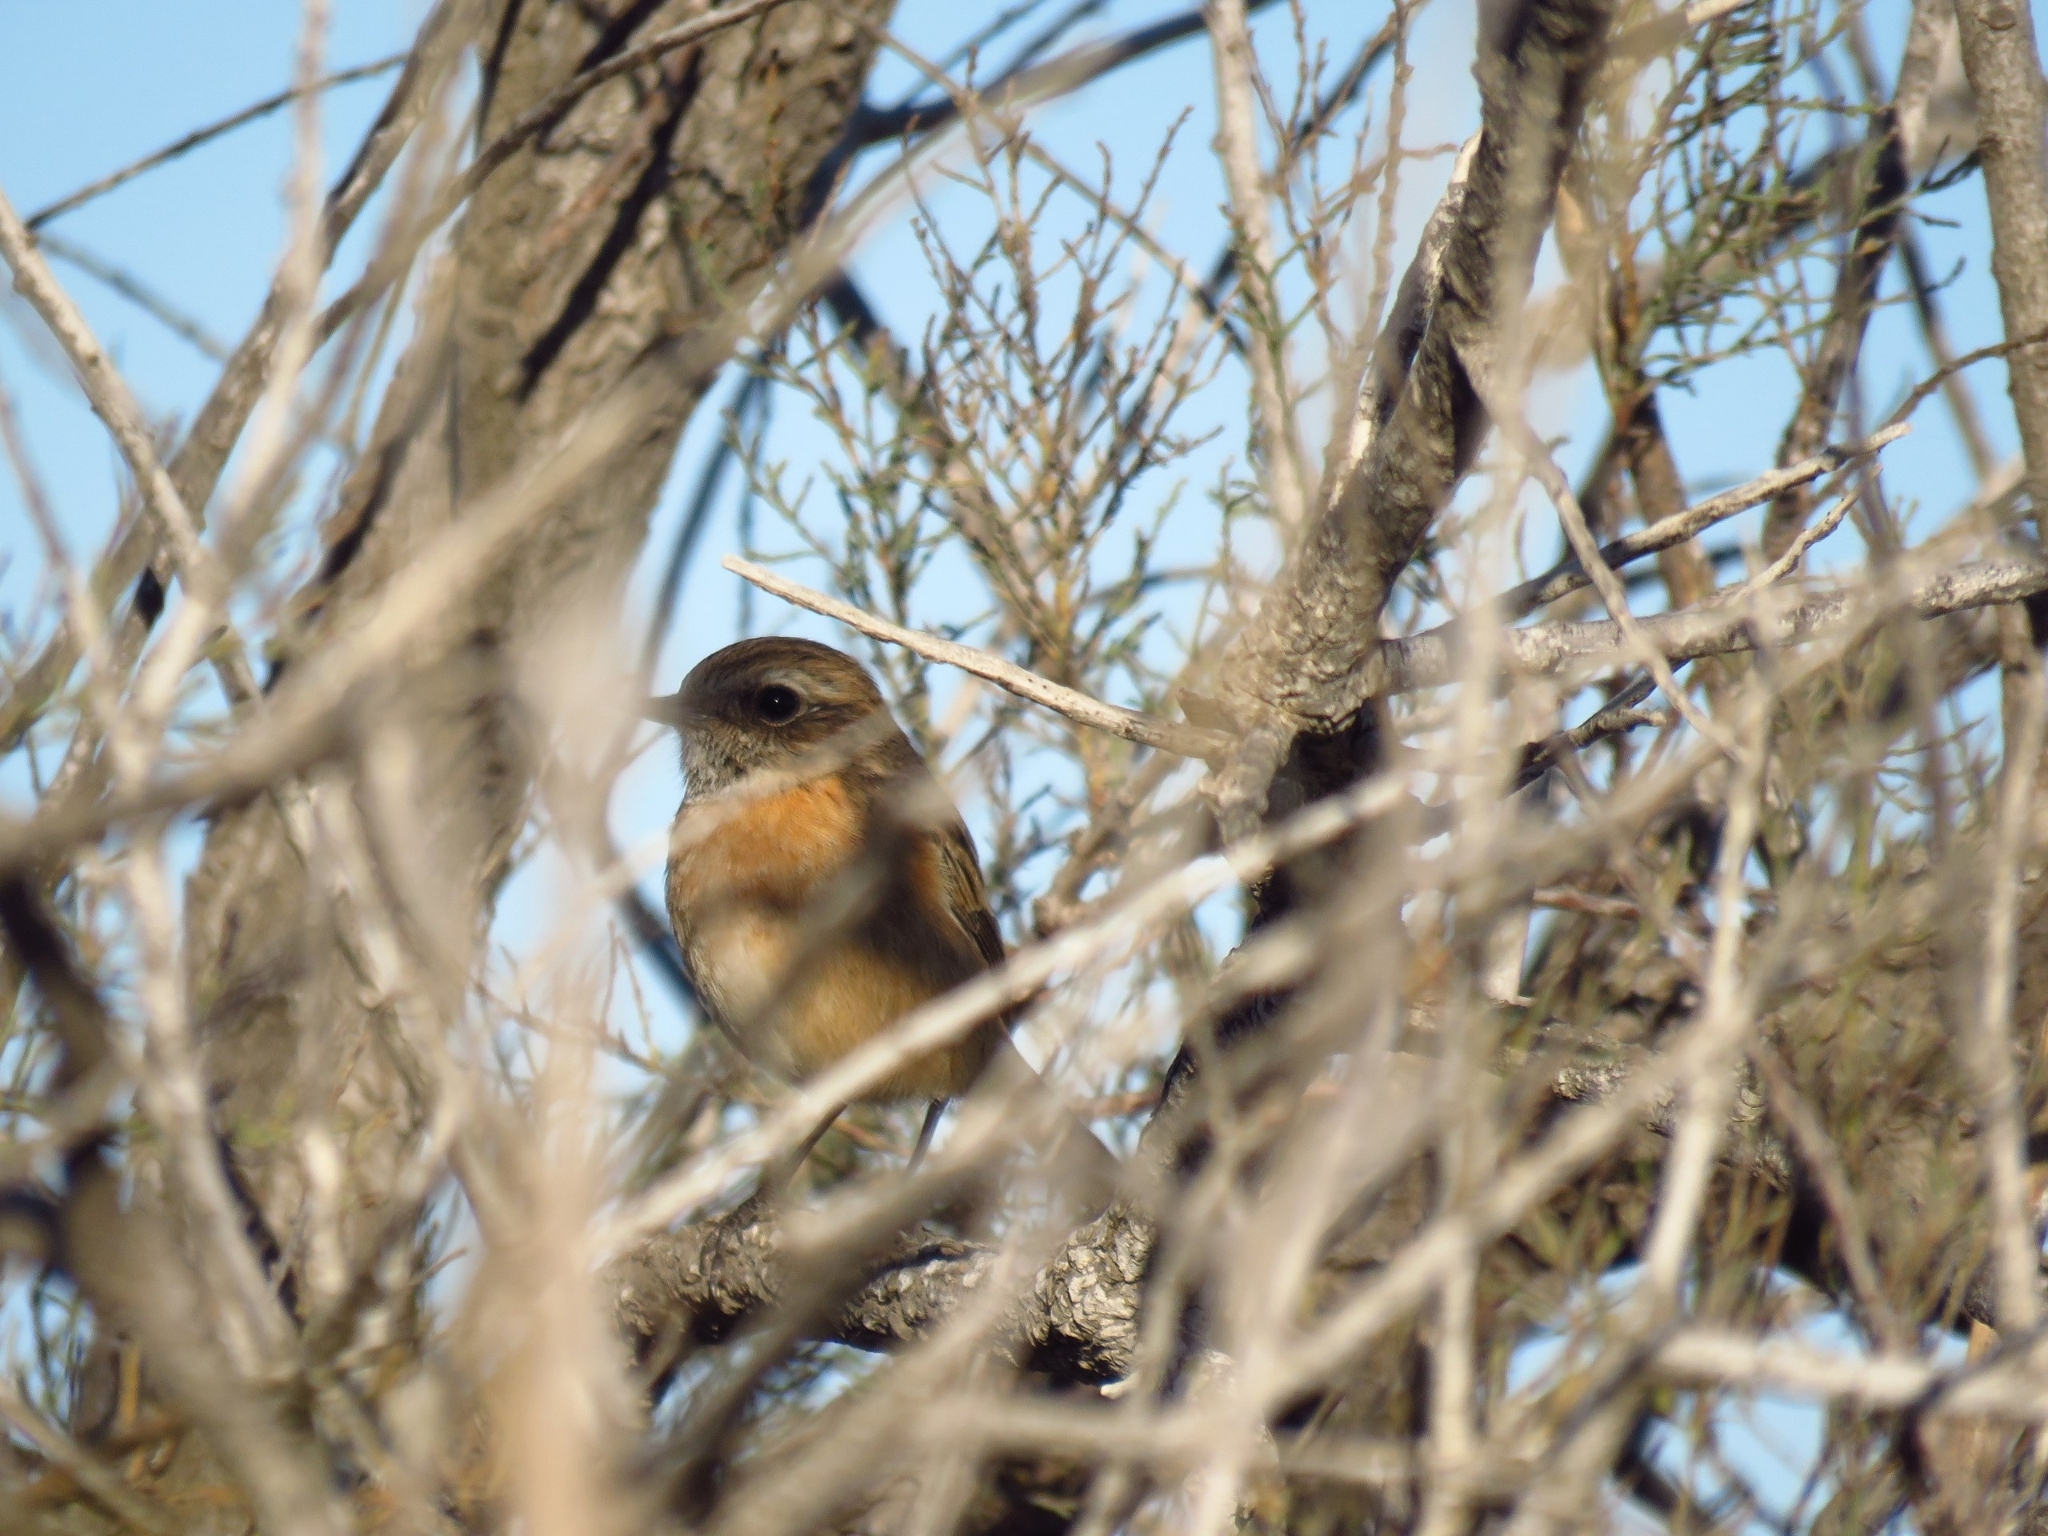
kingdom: Animalia
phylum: Chordata
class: Aves
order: Passeriformes
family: Muscicapidae
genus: Saxicola
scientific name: Saxicola rubicola
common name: European stonechat
